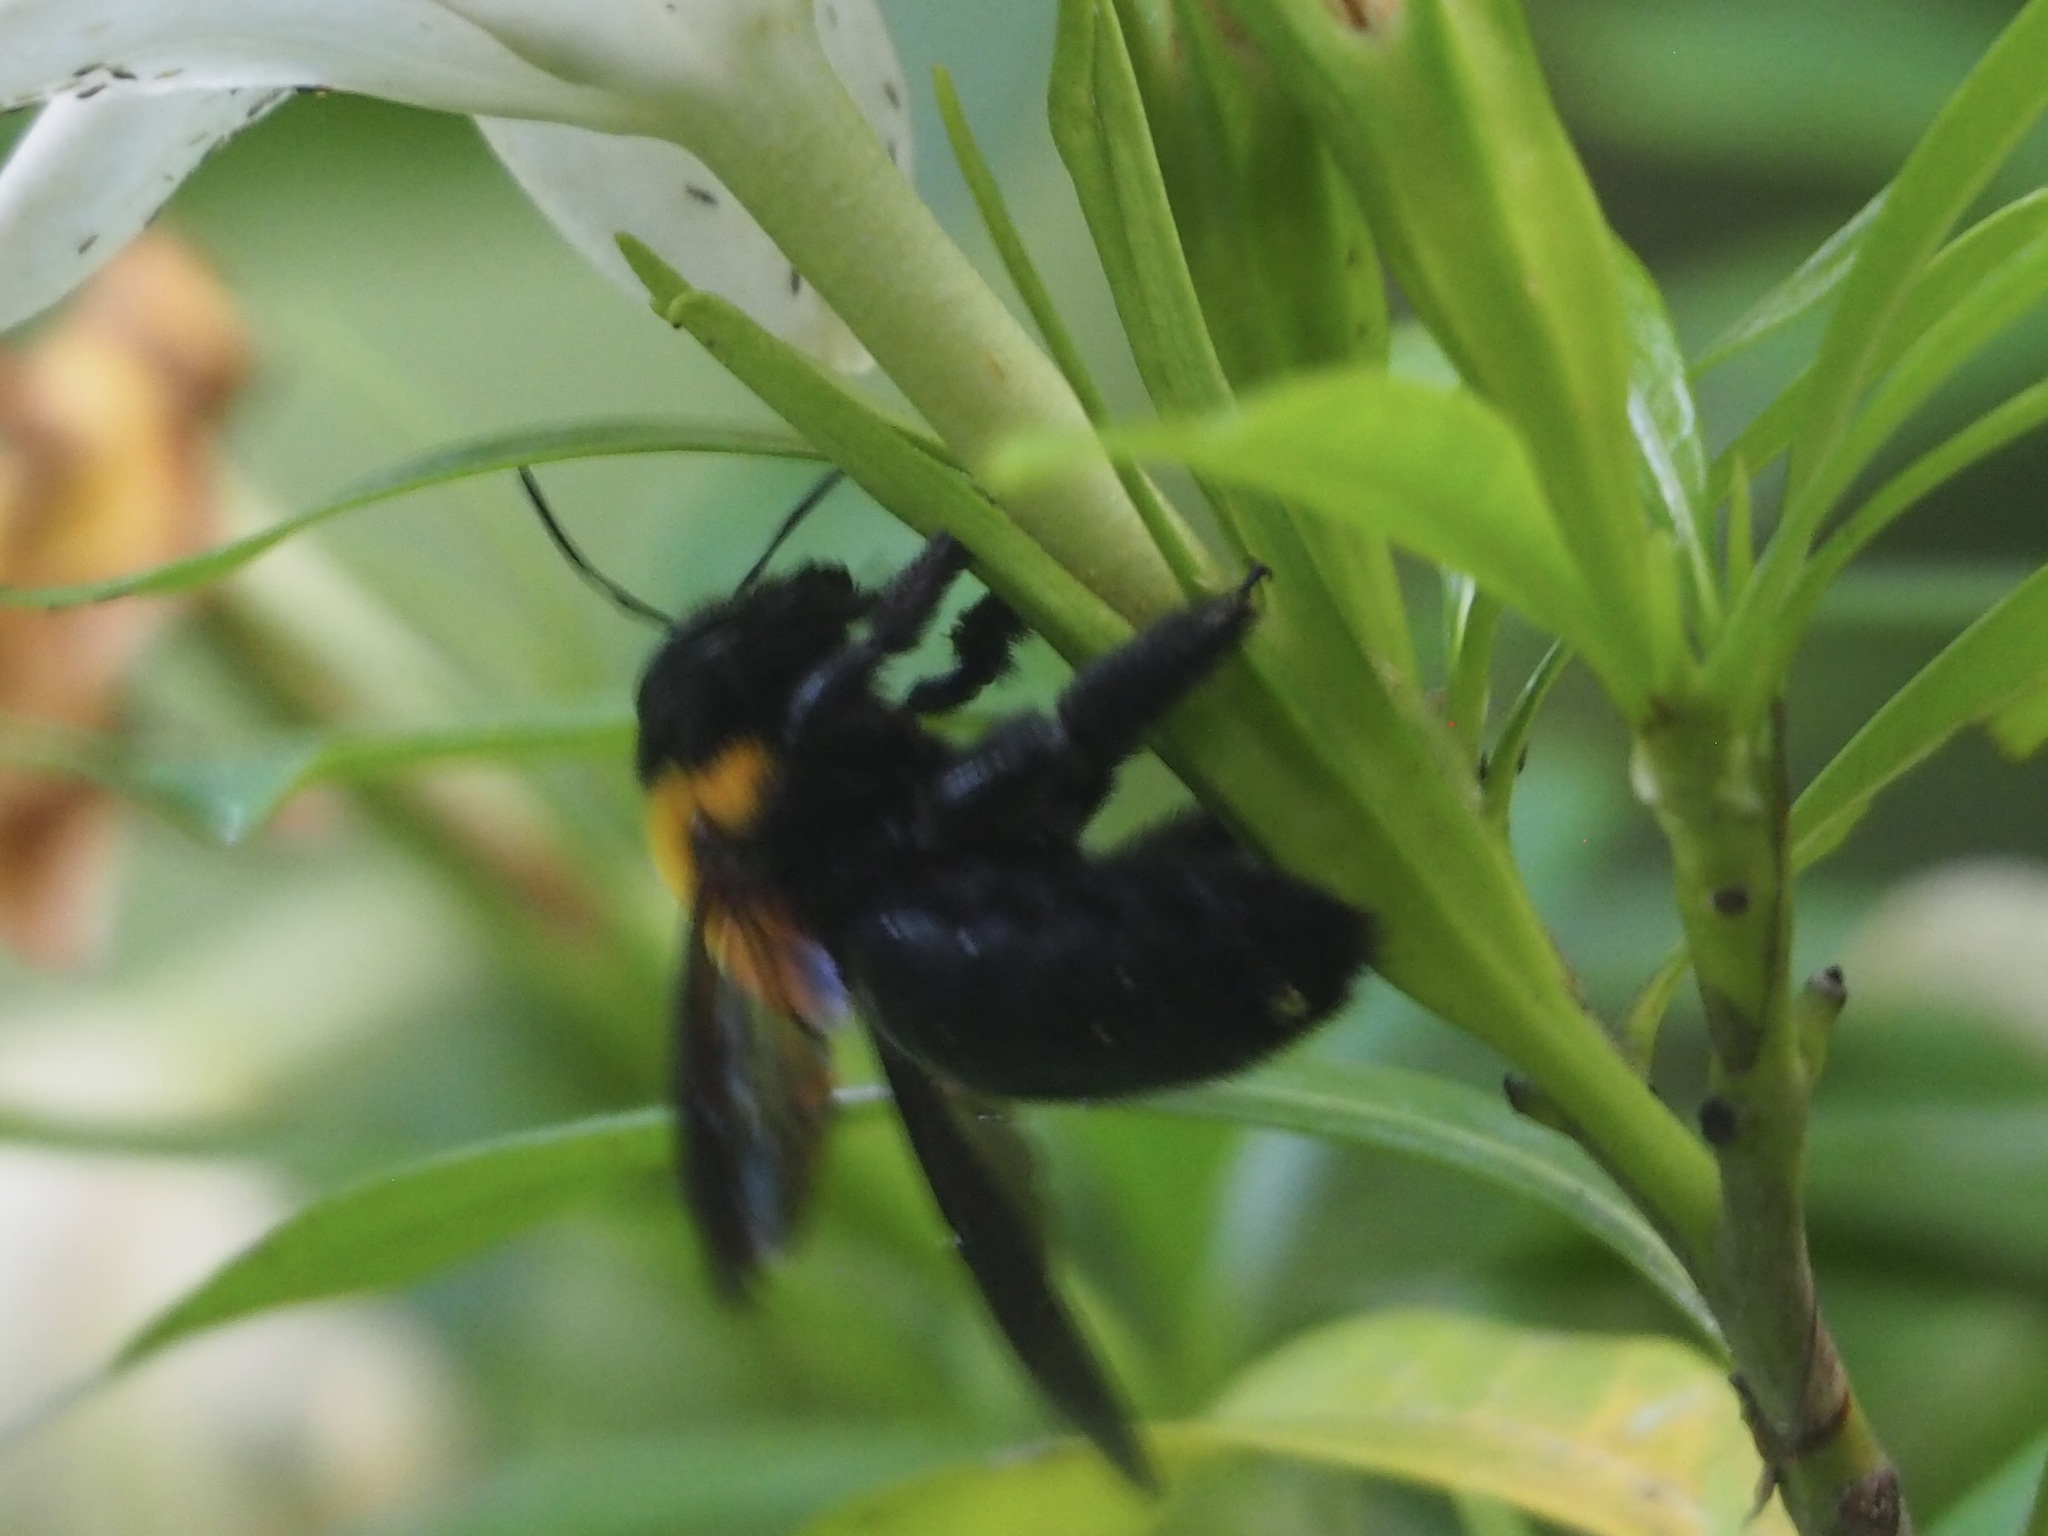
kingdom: Animalia
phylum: Arthropoda
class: Insecta
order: Hymenoptera
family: Apidae
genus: Xylocopa
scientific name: Xylocopa appendiculata
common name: Japanese carpenter bee
